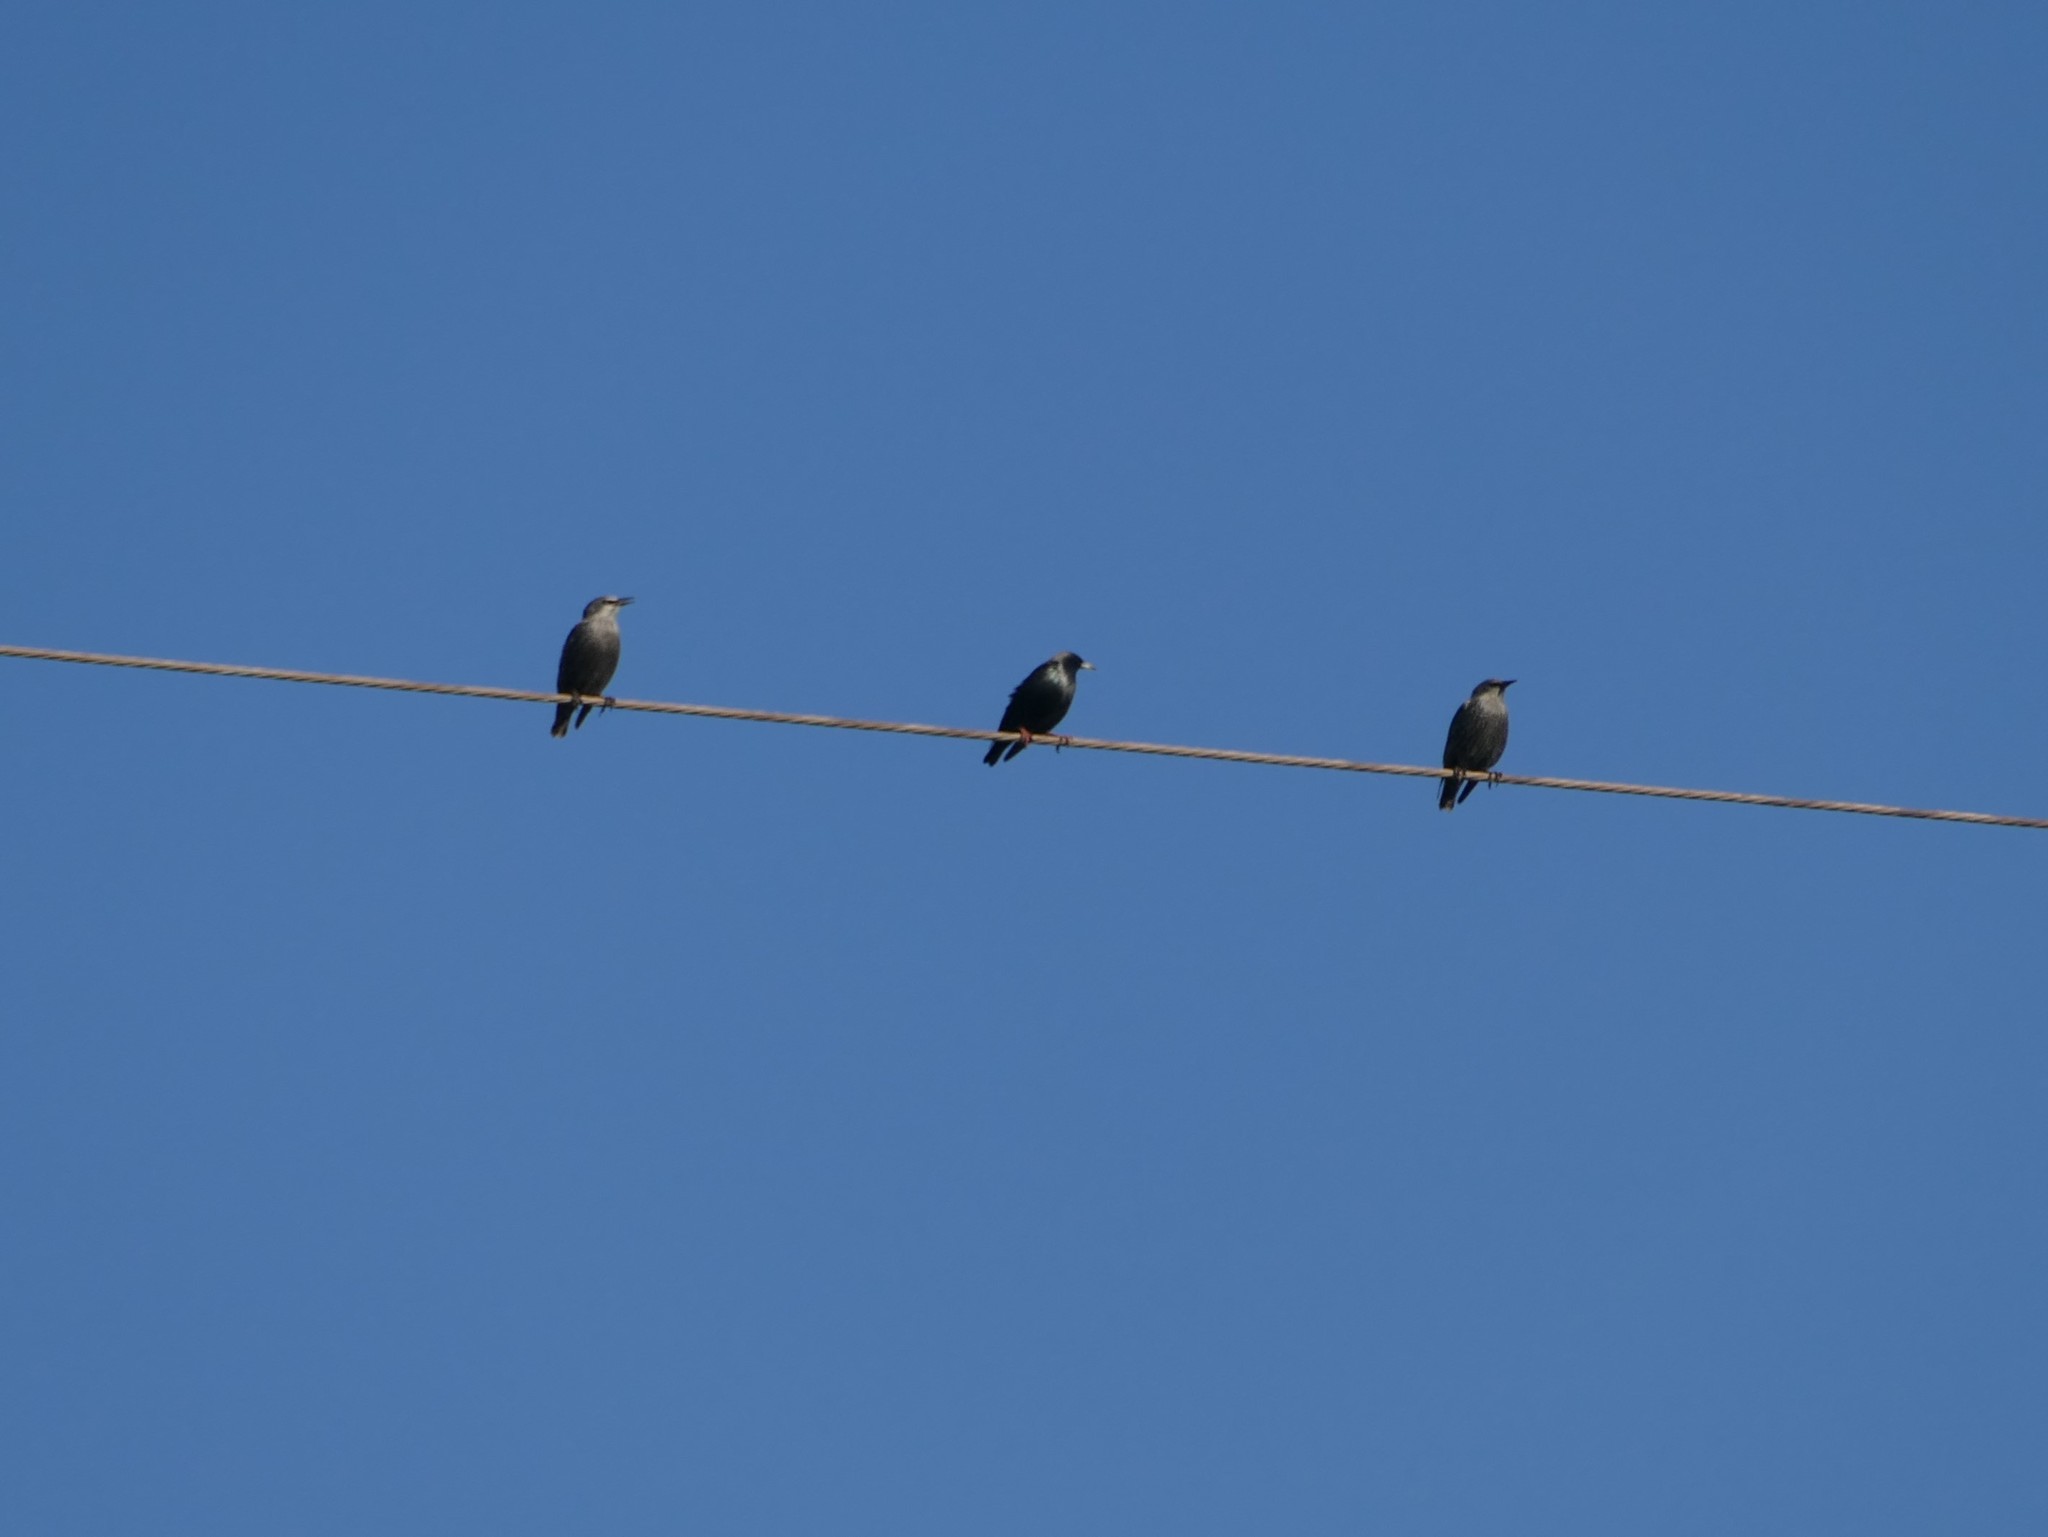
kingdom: Animalia
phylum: Chordata
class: Aves
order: Passeriformes
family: Sturnidae
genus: Sturnus
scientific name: Sturnus unicolor
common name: Spotless starling
